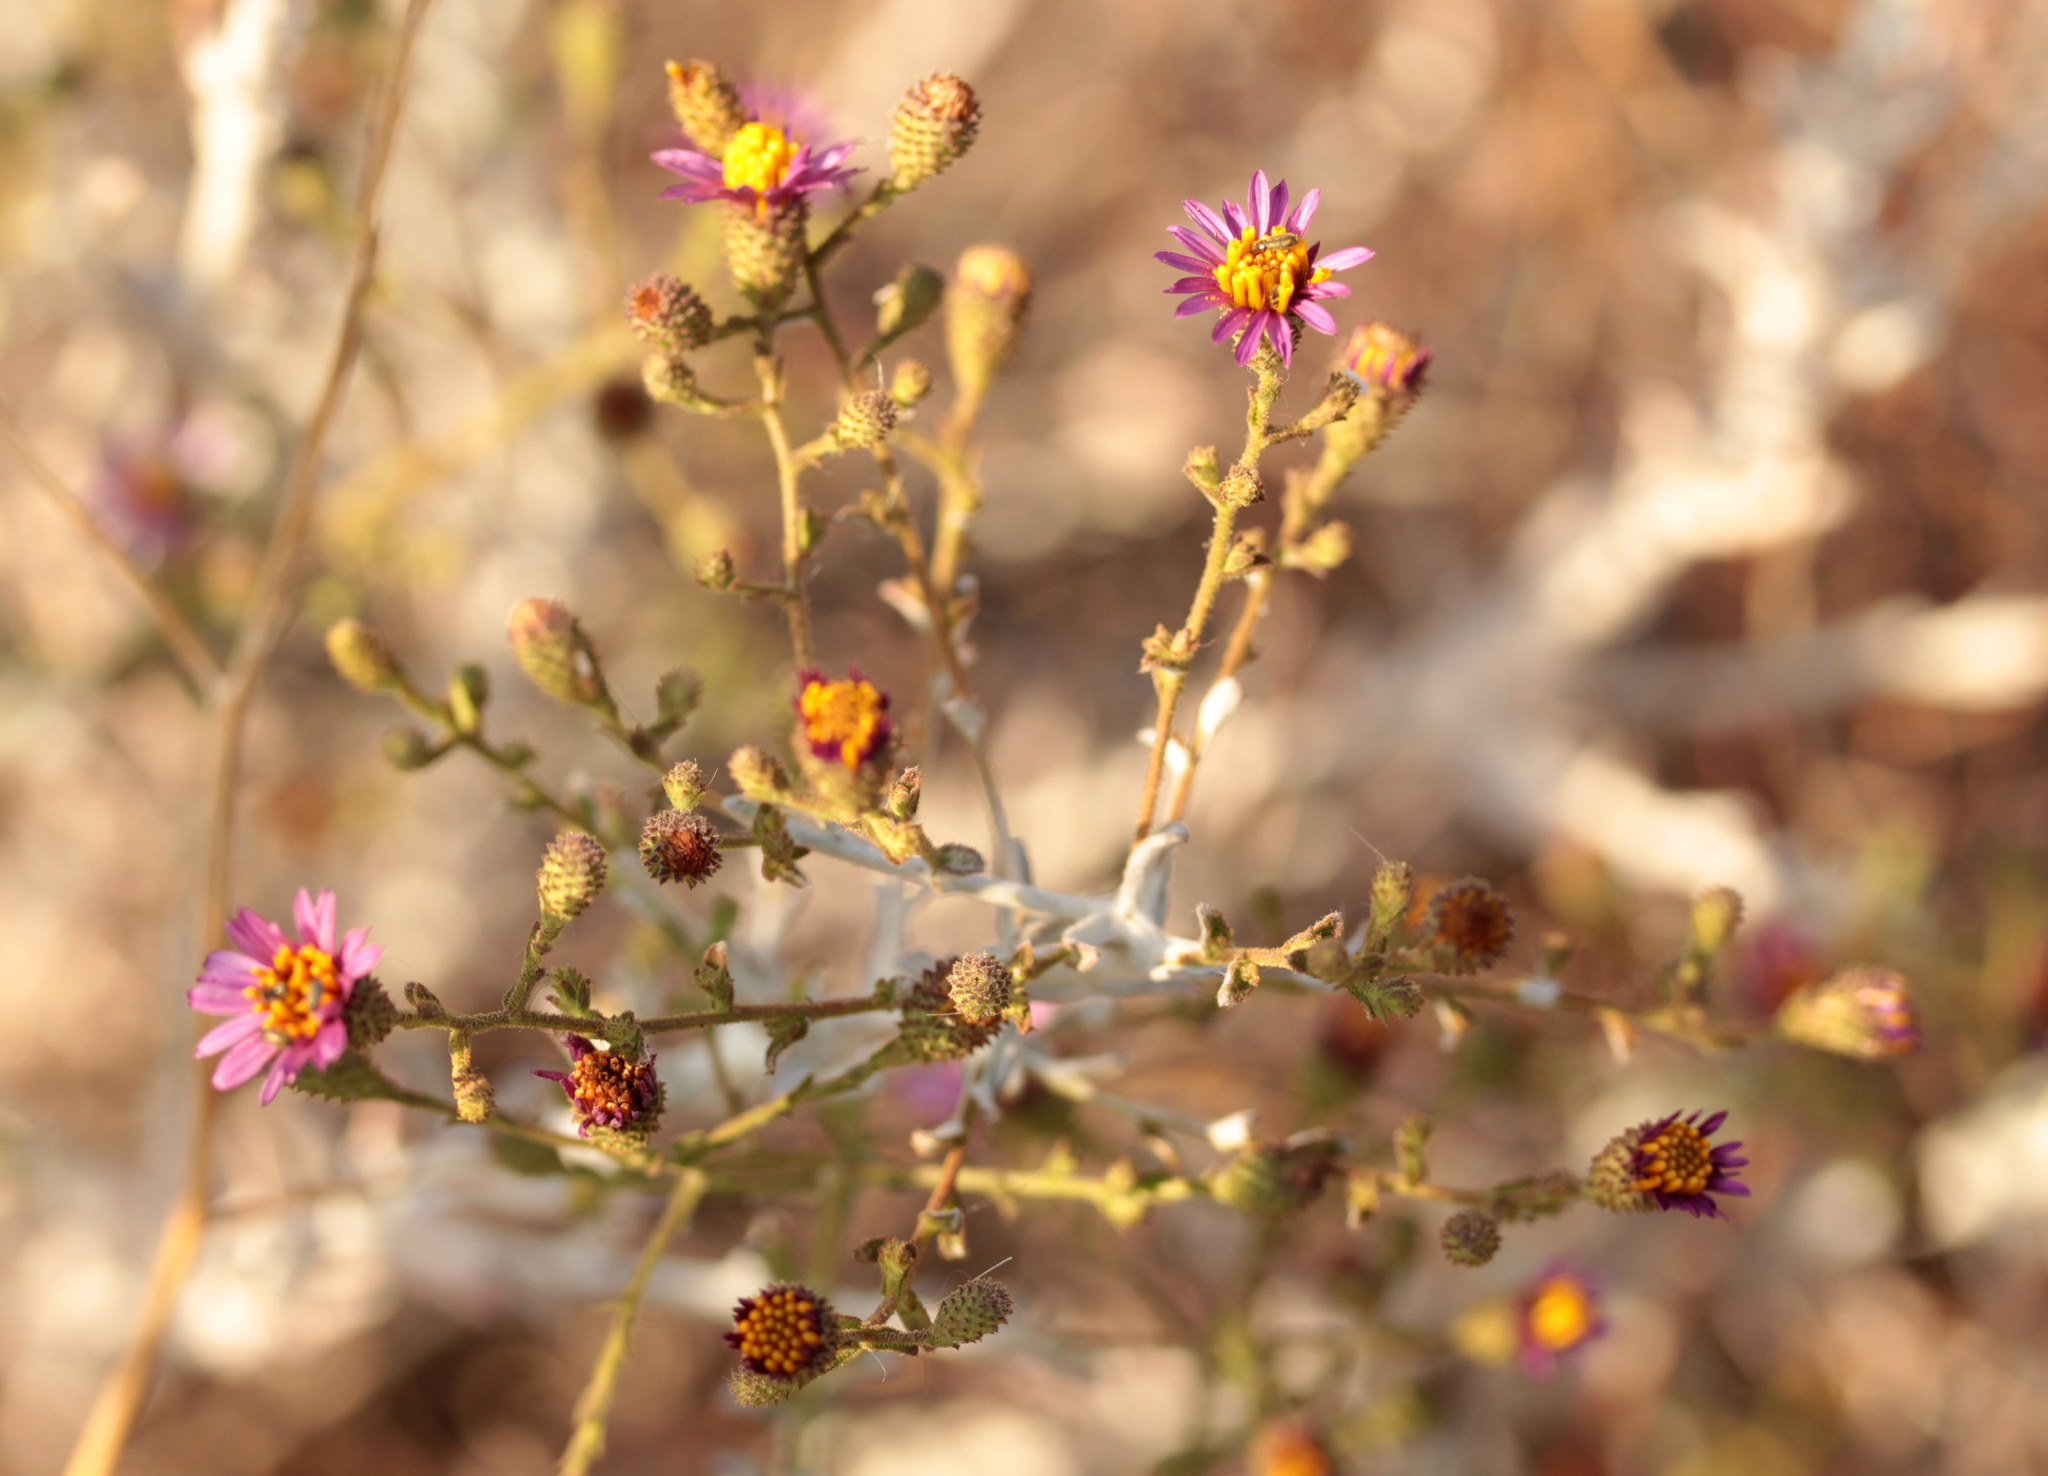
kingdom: Plantae
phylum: Tracheophyta
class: Magnoliopsida
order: Asterales
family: Asteraceae
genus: Corethrogyne
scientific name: Corethrogyne filaginifolia
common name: Sand-aster
